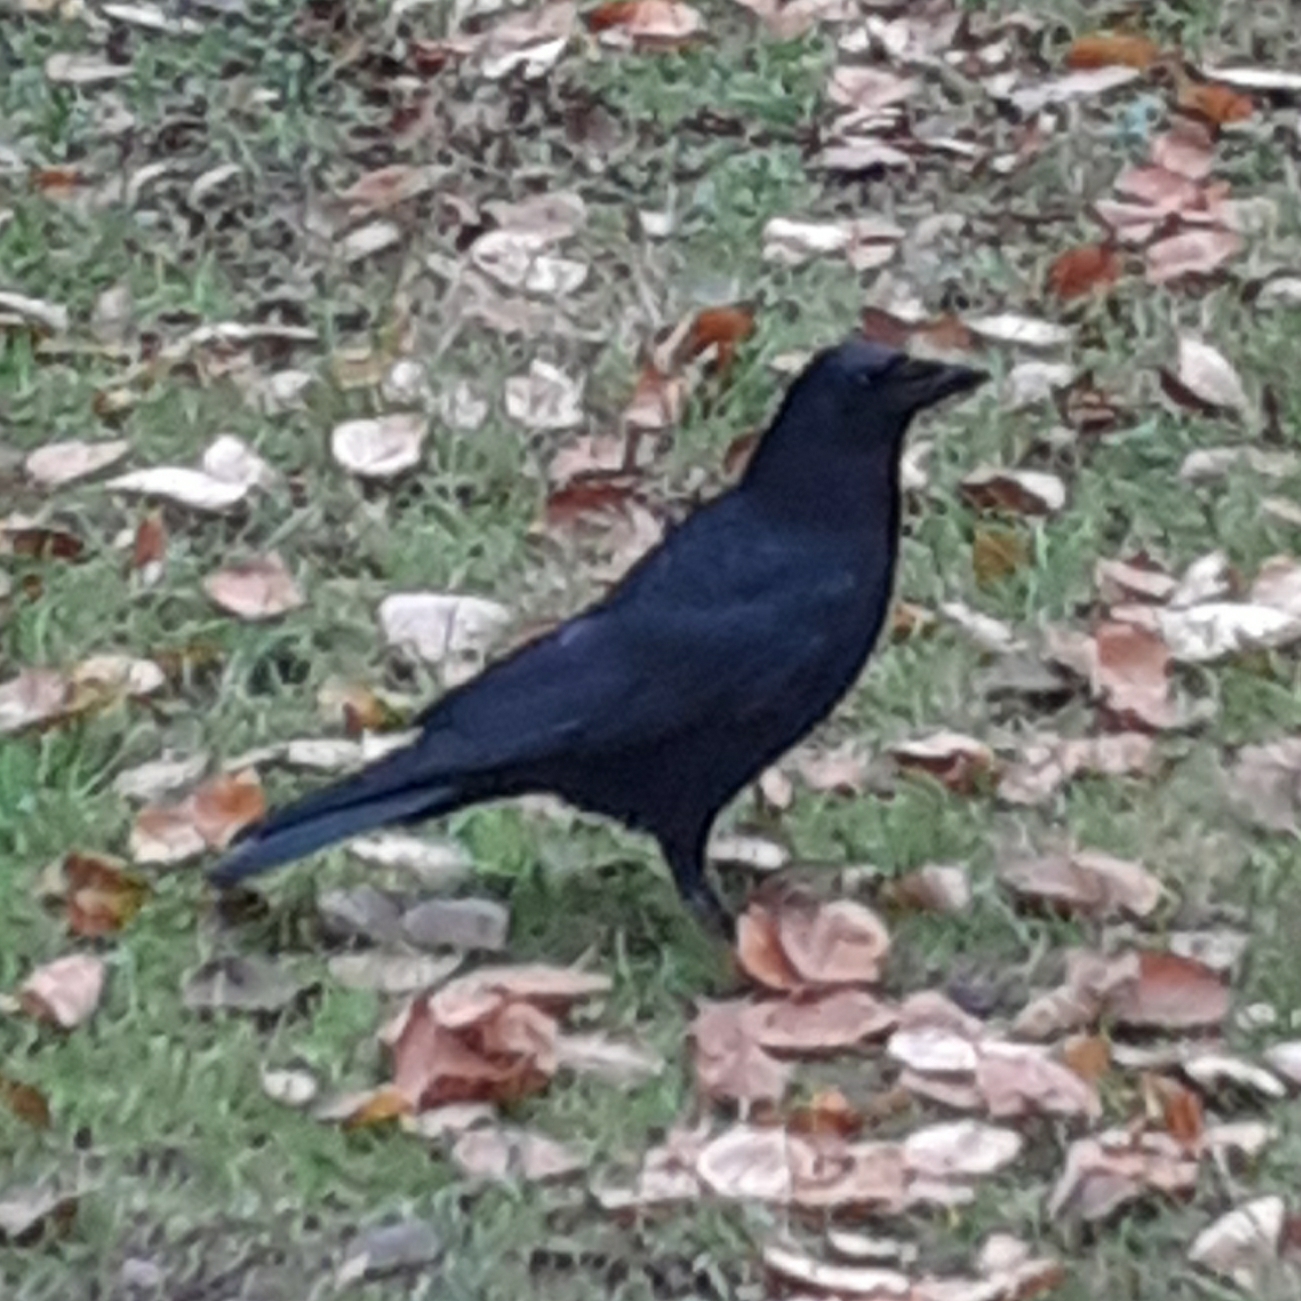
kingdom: Animalia
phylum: Chordata
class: Aves
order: Passeriformes
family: Corvidae
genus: Corvus
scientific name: Corvus corone
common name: Carrion crow
